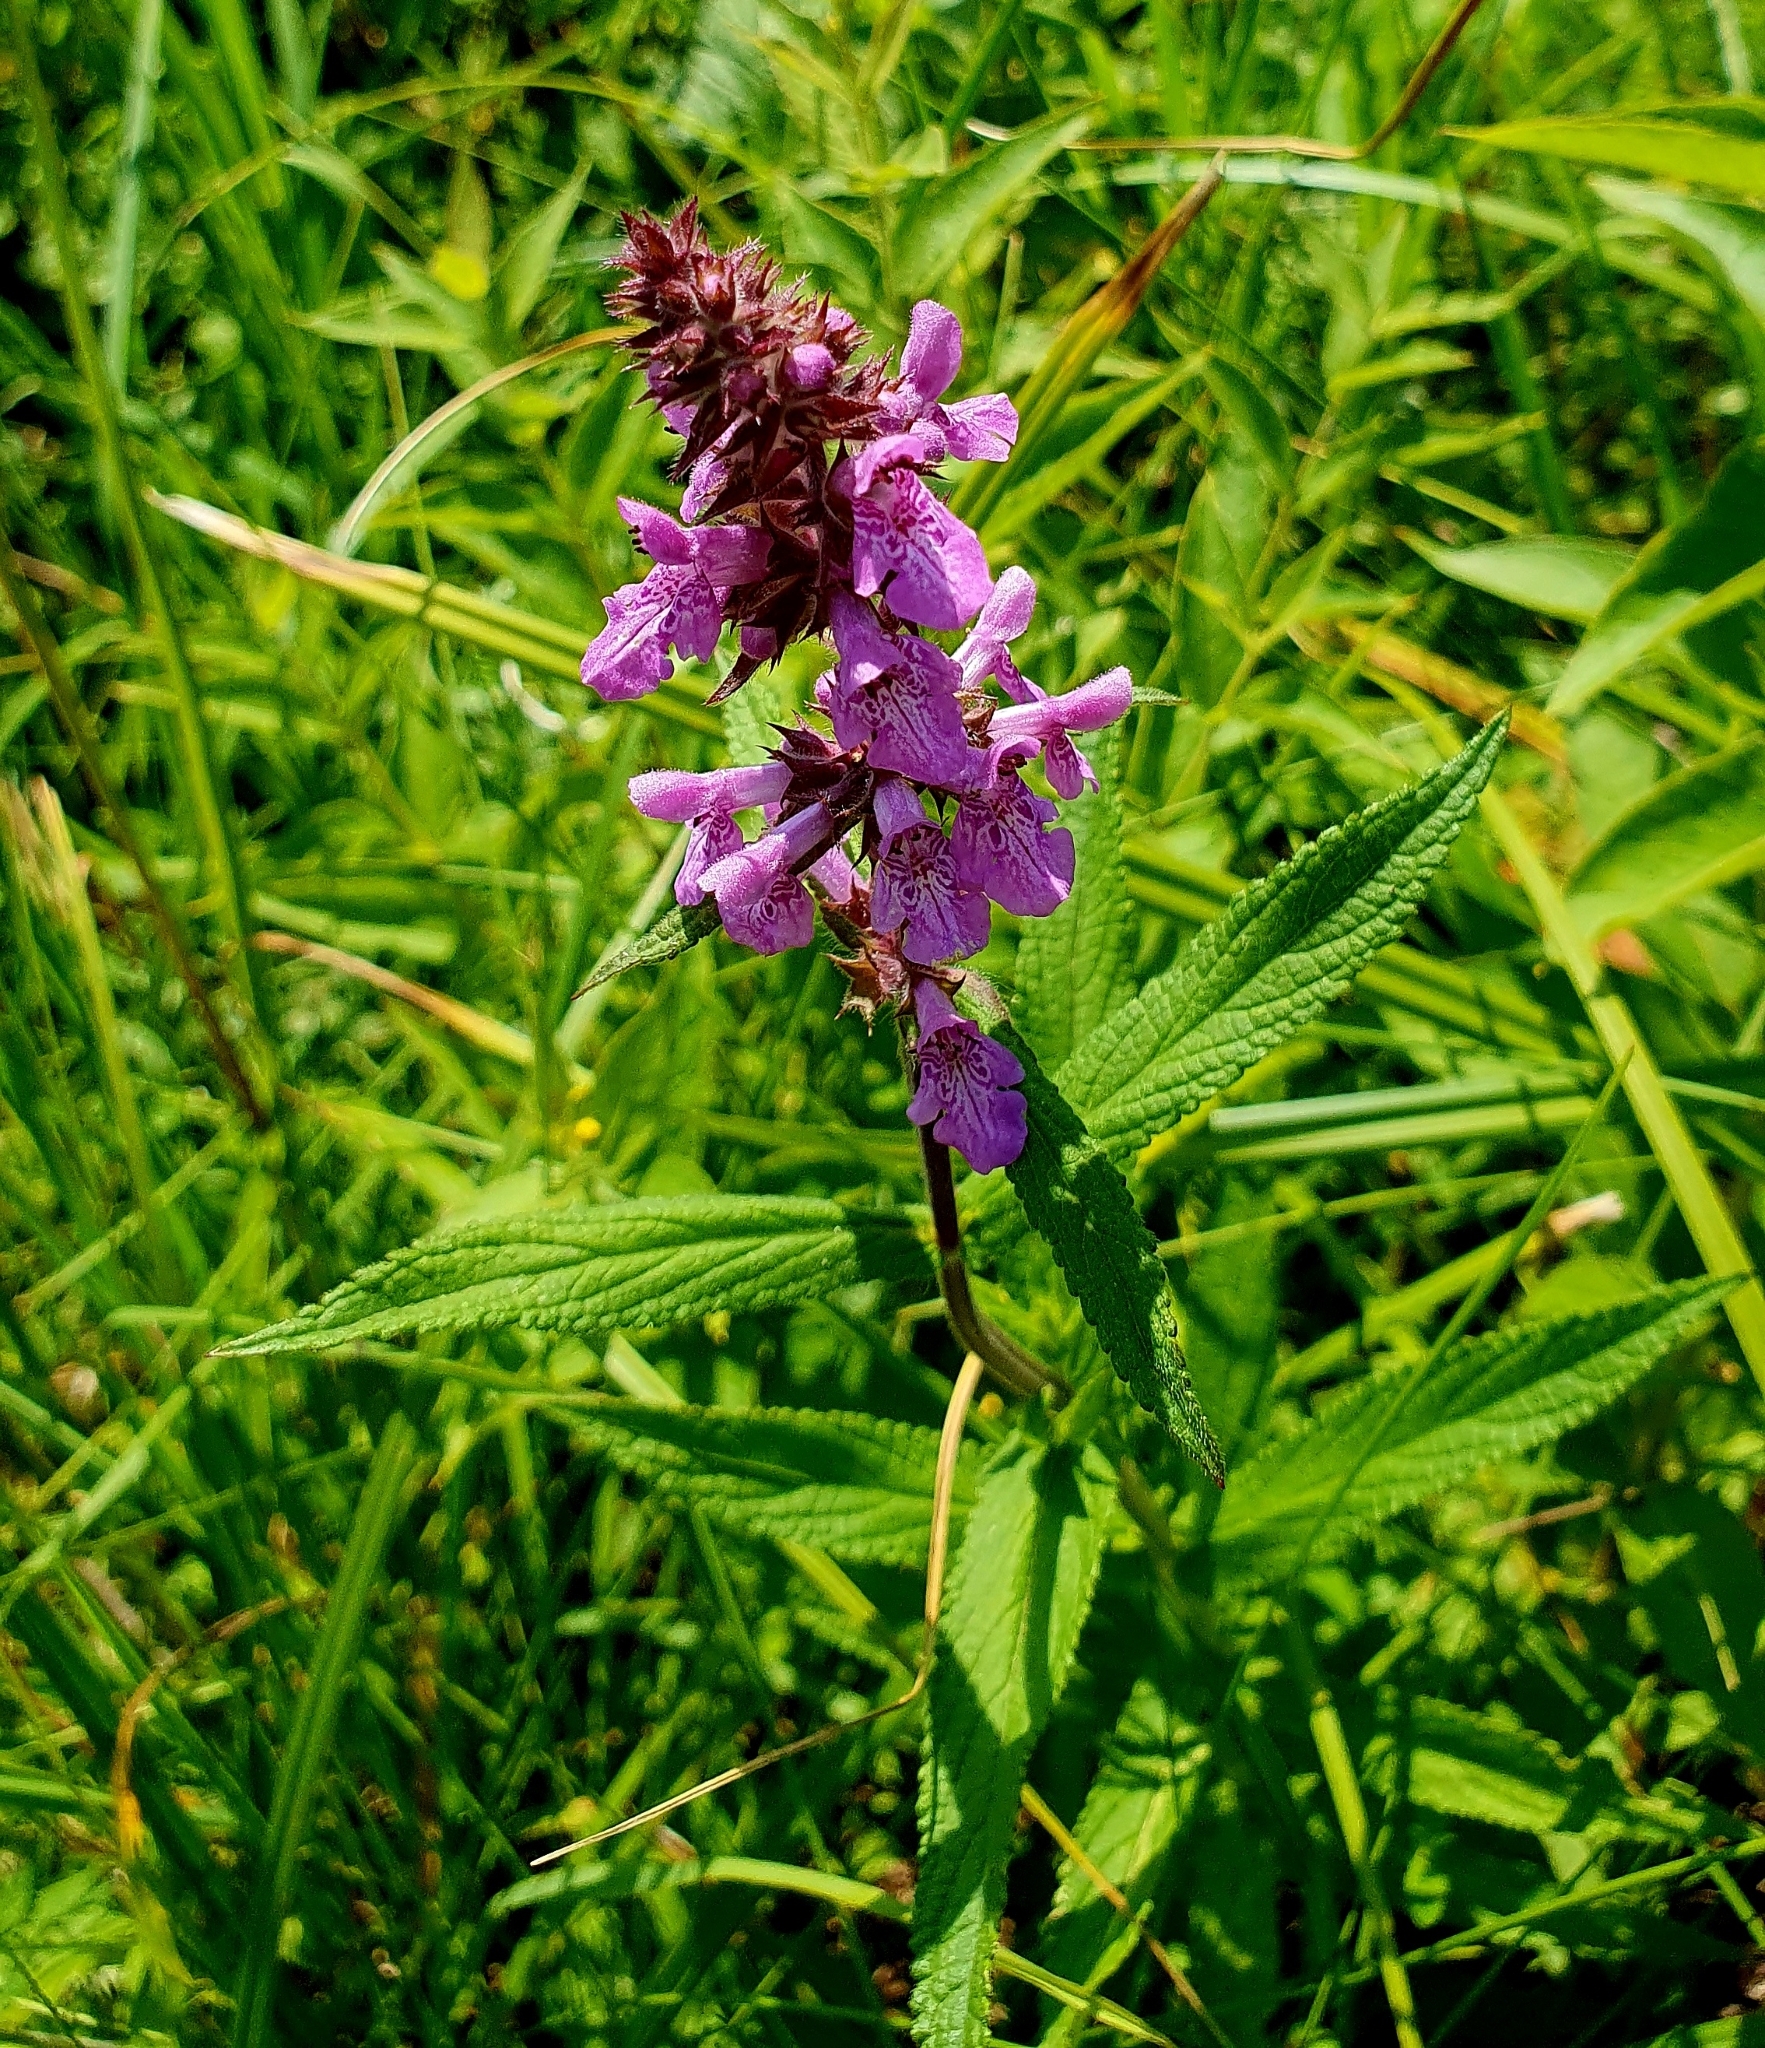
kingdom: Plantae
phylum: Tracheophyta
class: Magnoliopsida
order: Lamiales
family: Lamiaceae
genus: Stachys
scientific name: Stachys palustris
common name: Marsh woundwort
